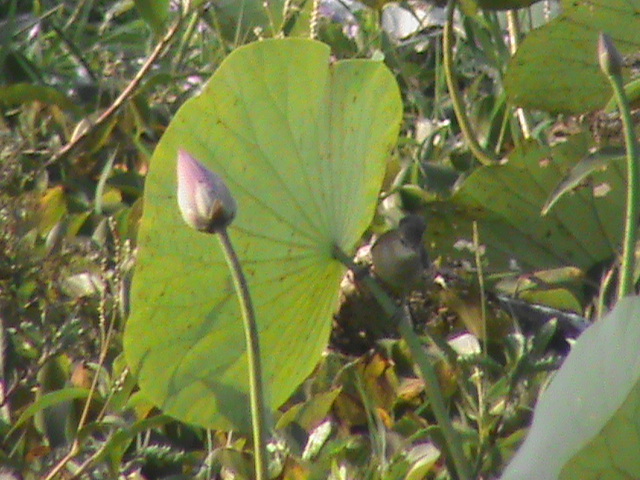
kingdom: Plantae
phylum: Tracheophyta
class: Magnoliopsida
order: Proteales
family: Nelumbonaceae
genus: Nelumbo
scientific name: Nelumbo nucifera
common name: Sacred lotus
